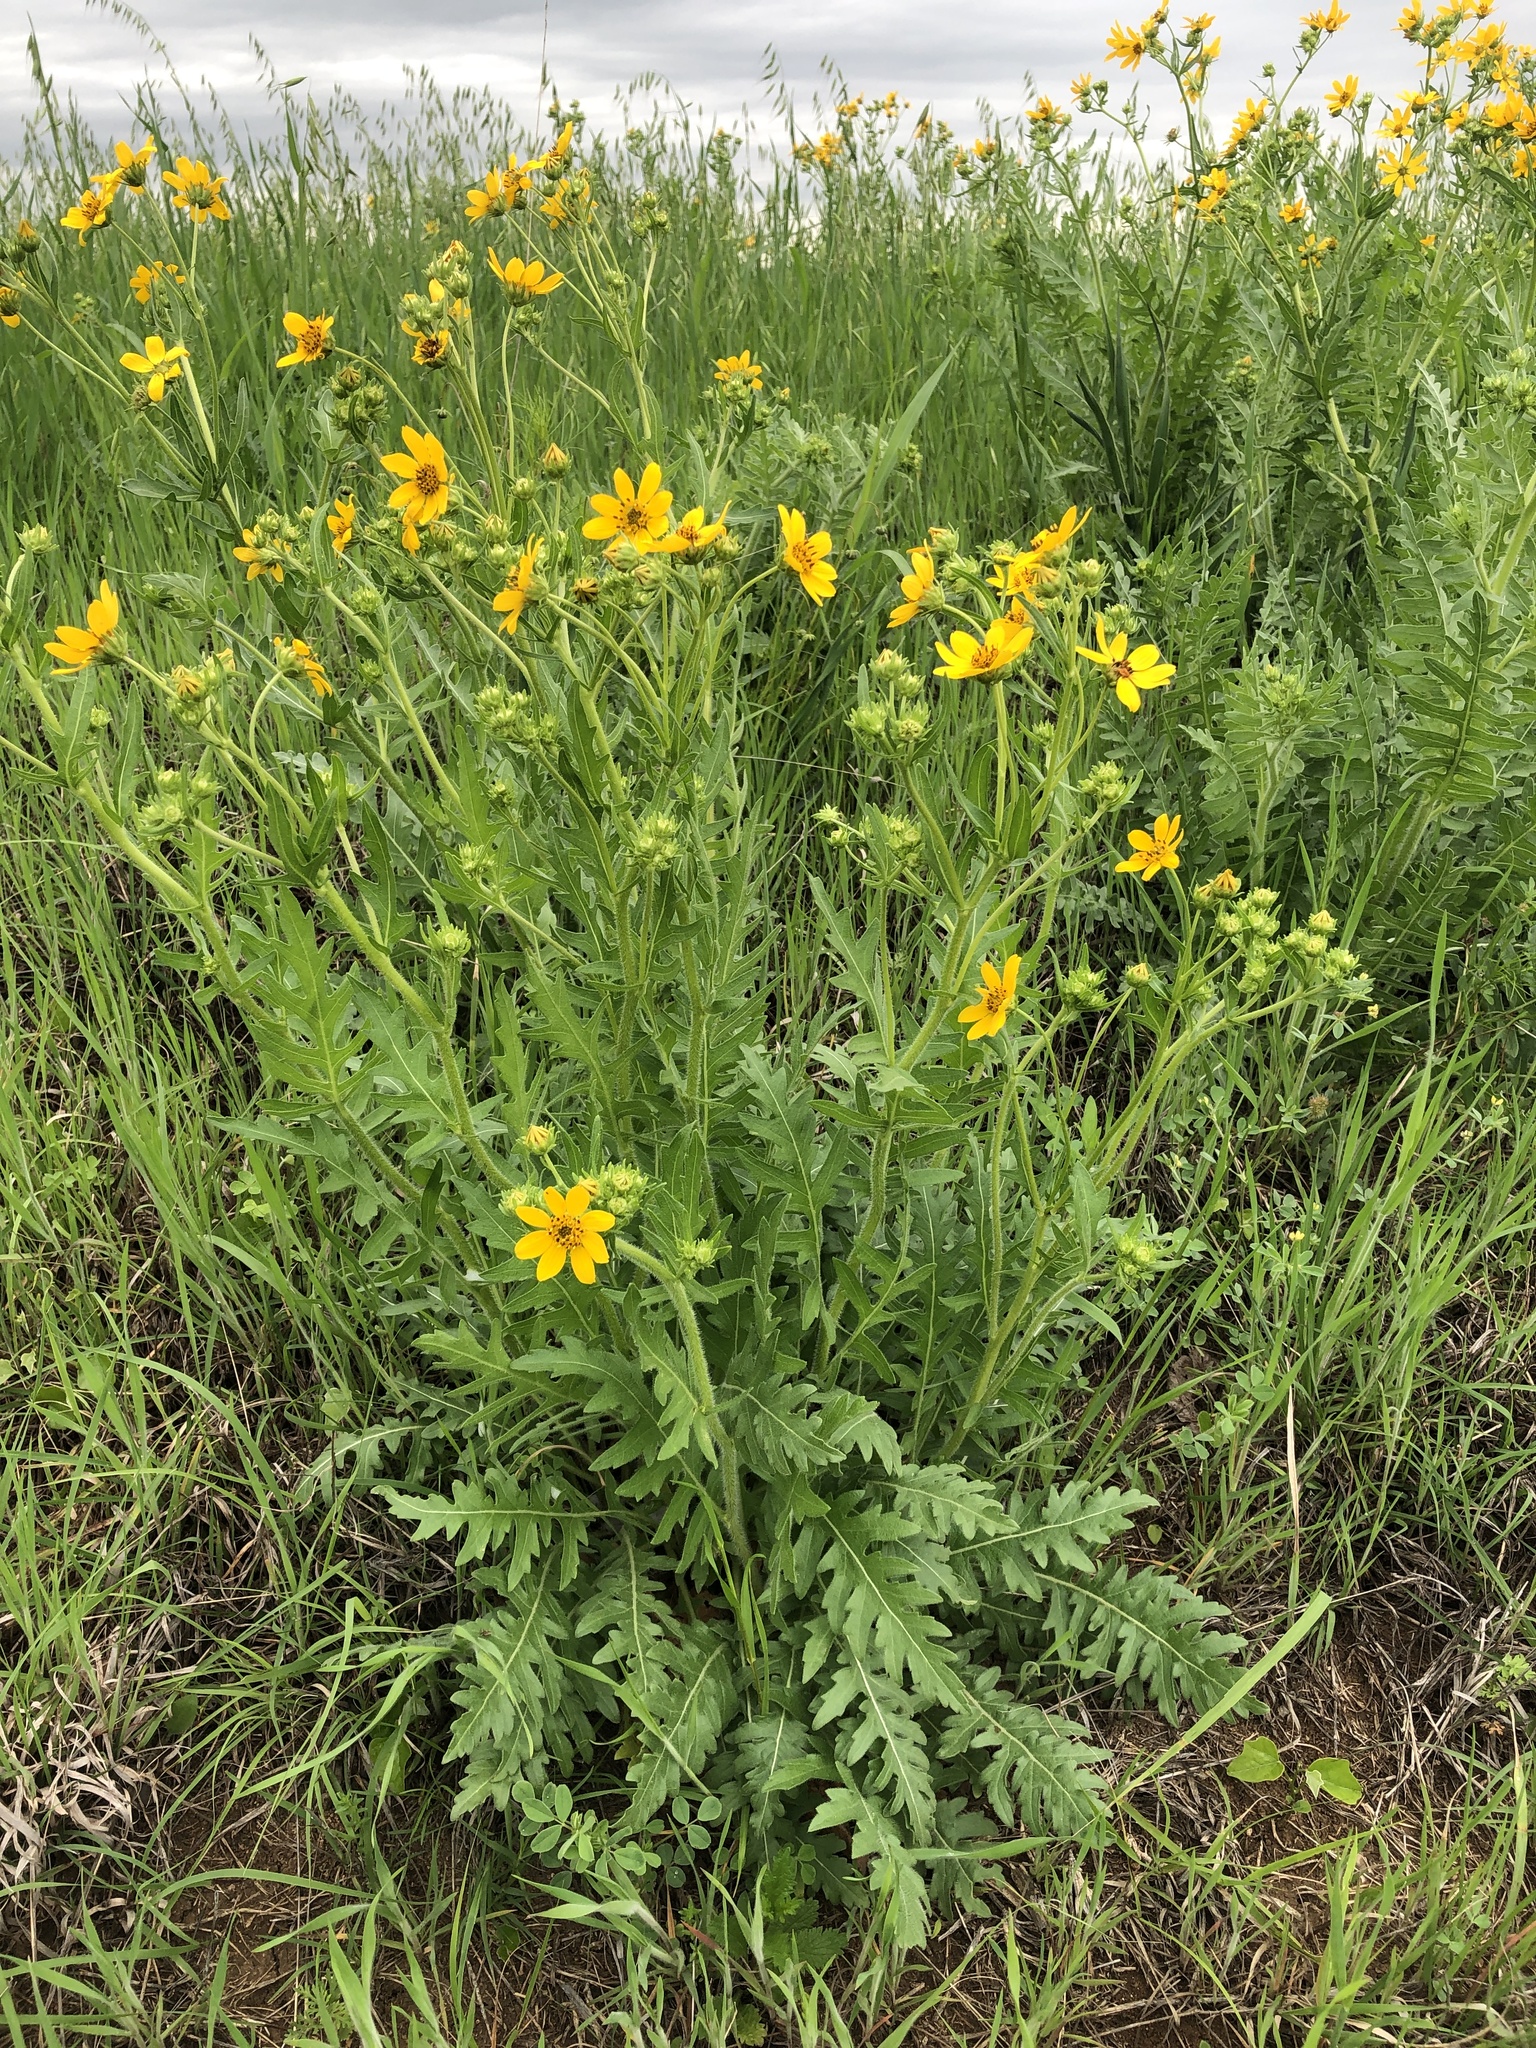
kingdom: Plantae
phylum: Tracheophyta
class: Magnoliopsida
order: Asterales
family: Asteraceae
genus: Engelmannia
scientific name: Engelmannia peristenia
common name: Engelmann's daisy
